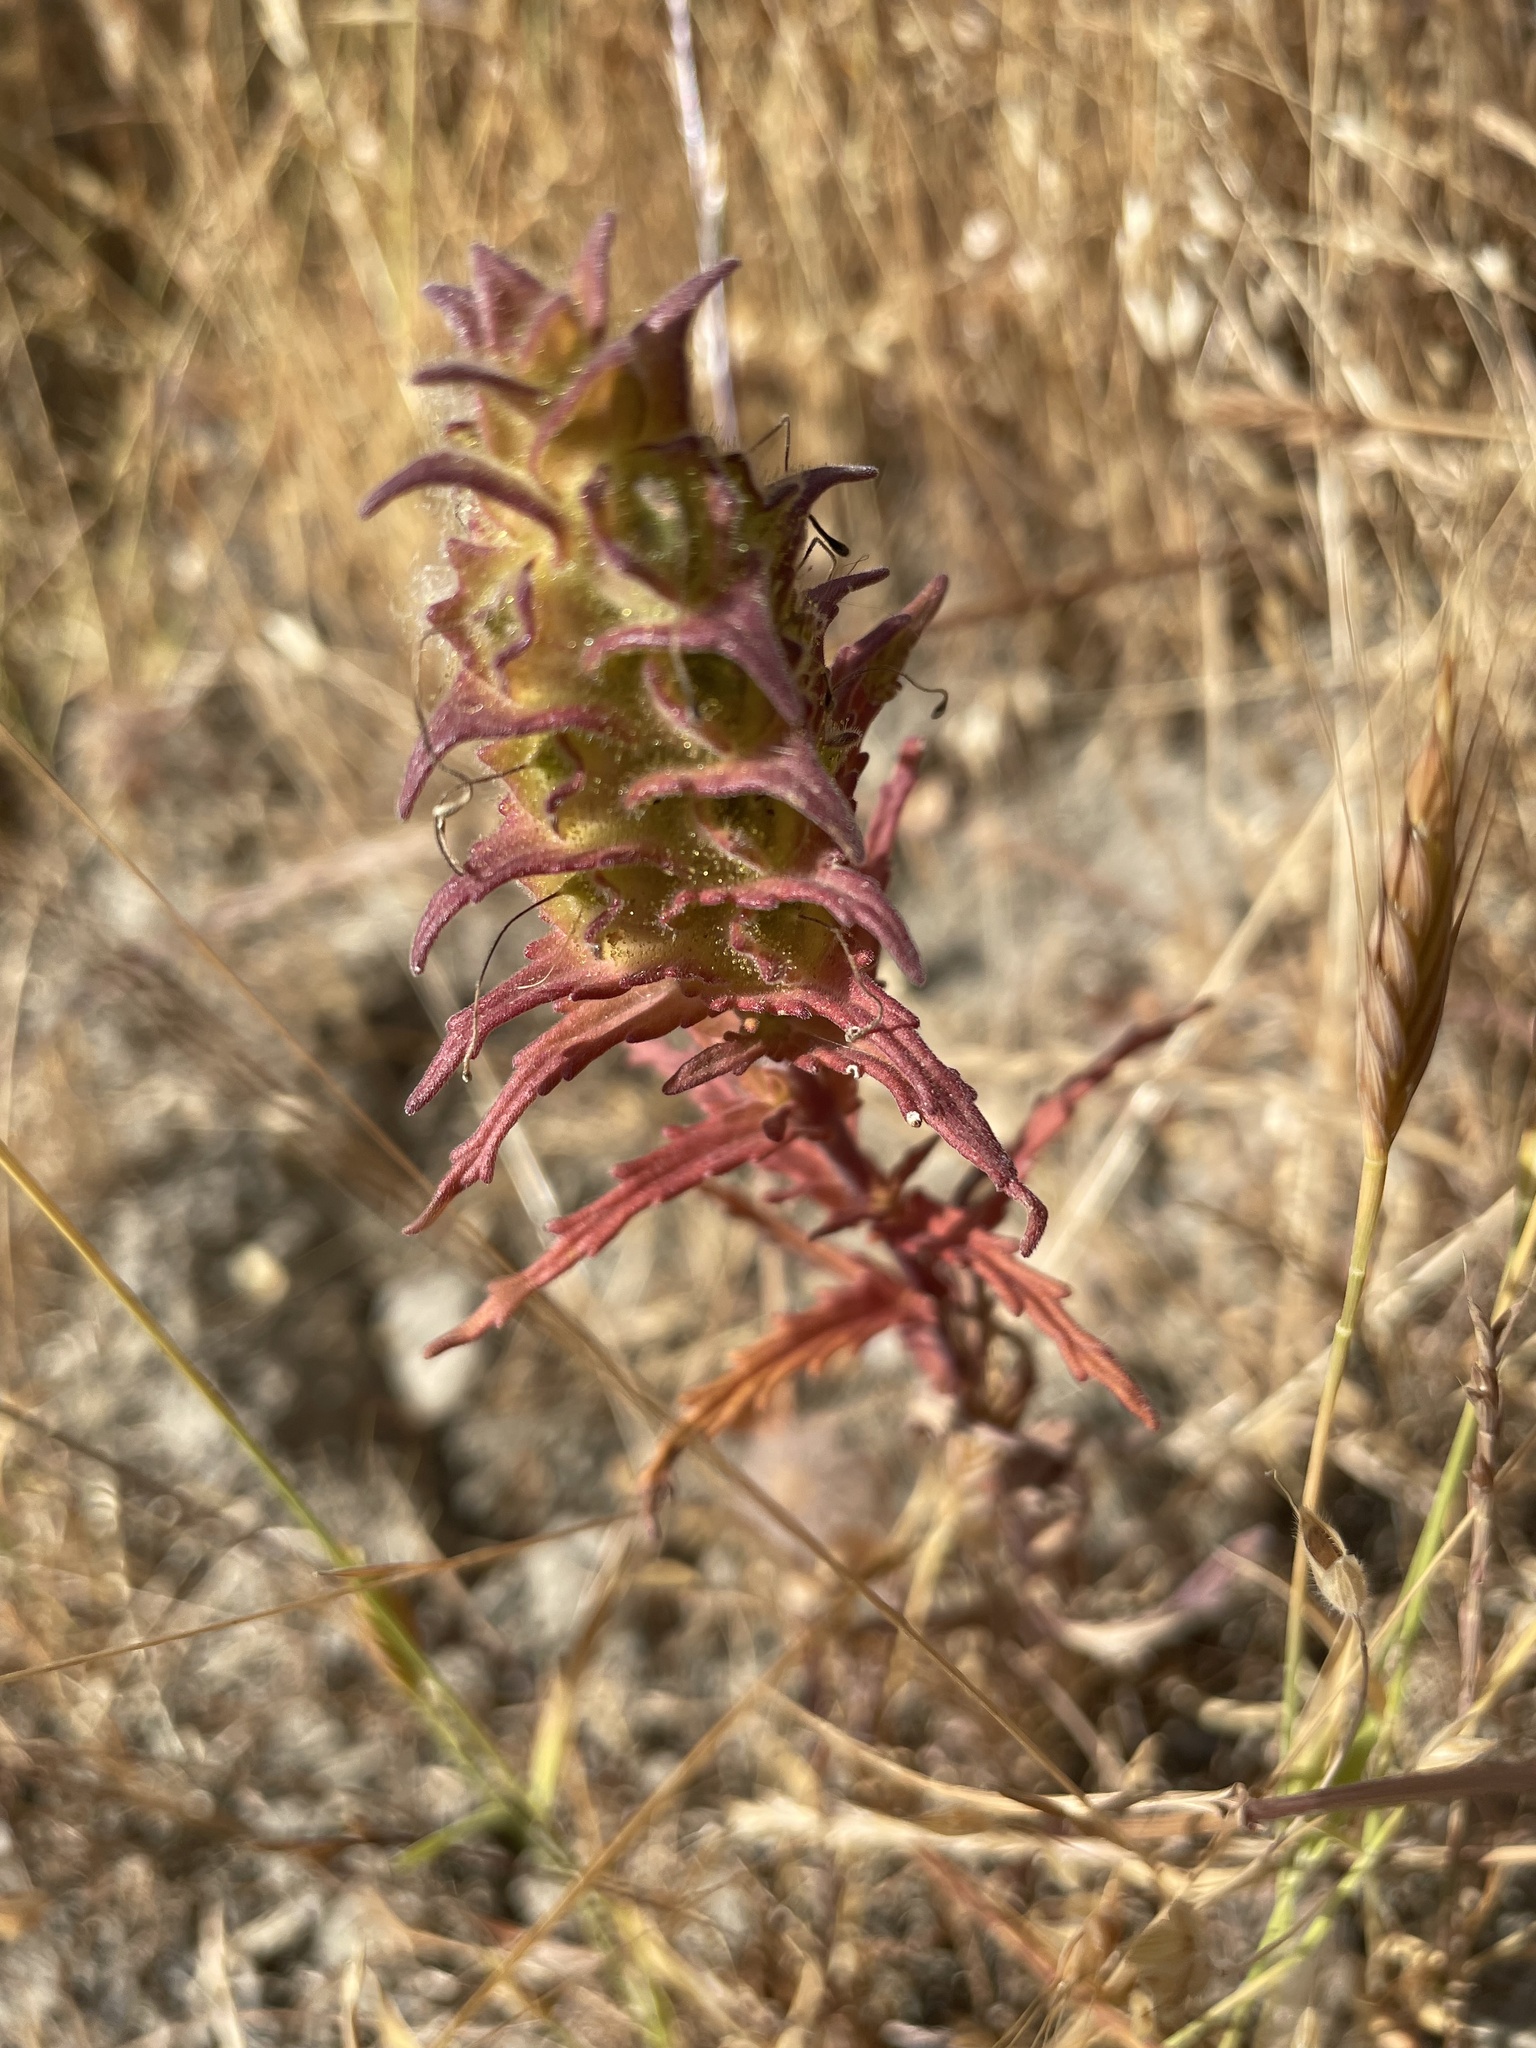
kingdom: Plantae
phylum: Tracheophyta
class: Magnoliopsida
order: Lamiales
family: Orobanchaceae
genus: Bellardia
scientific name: Bellardia trixago
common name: Mediterranean lineseed
